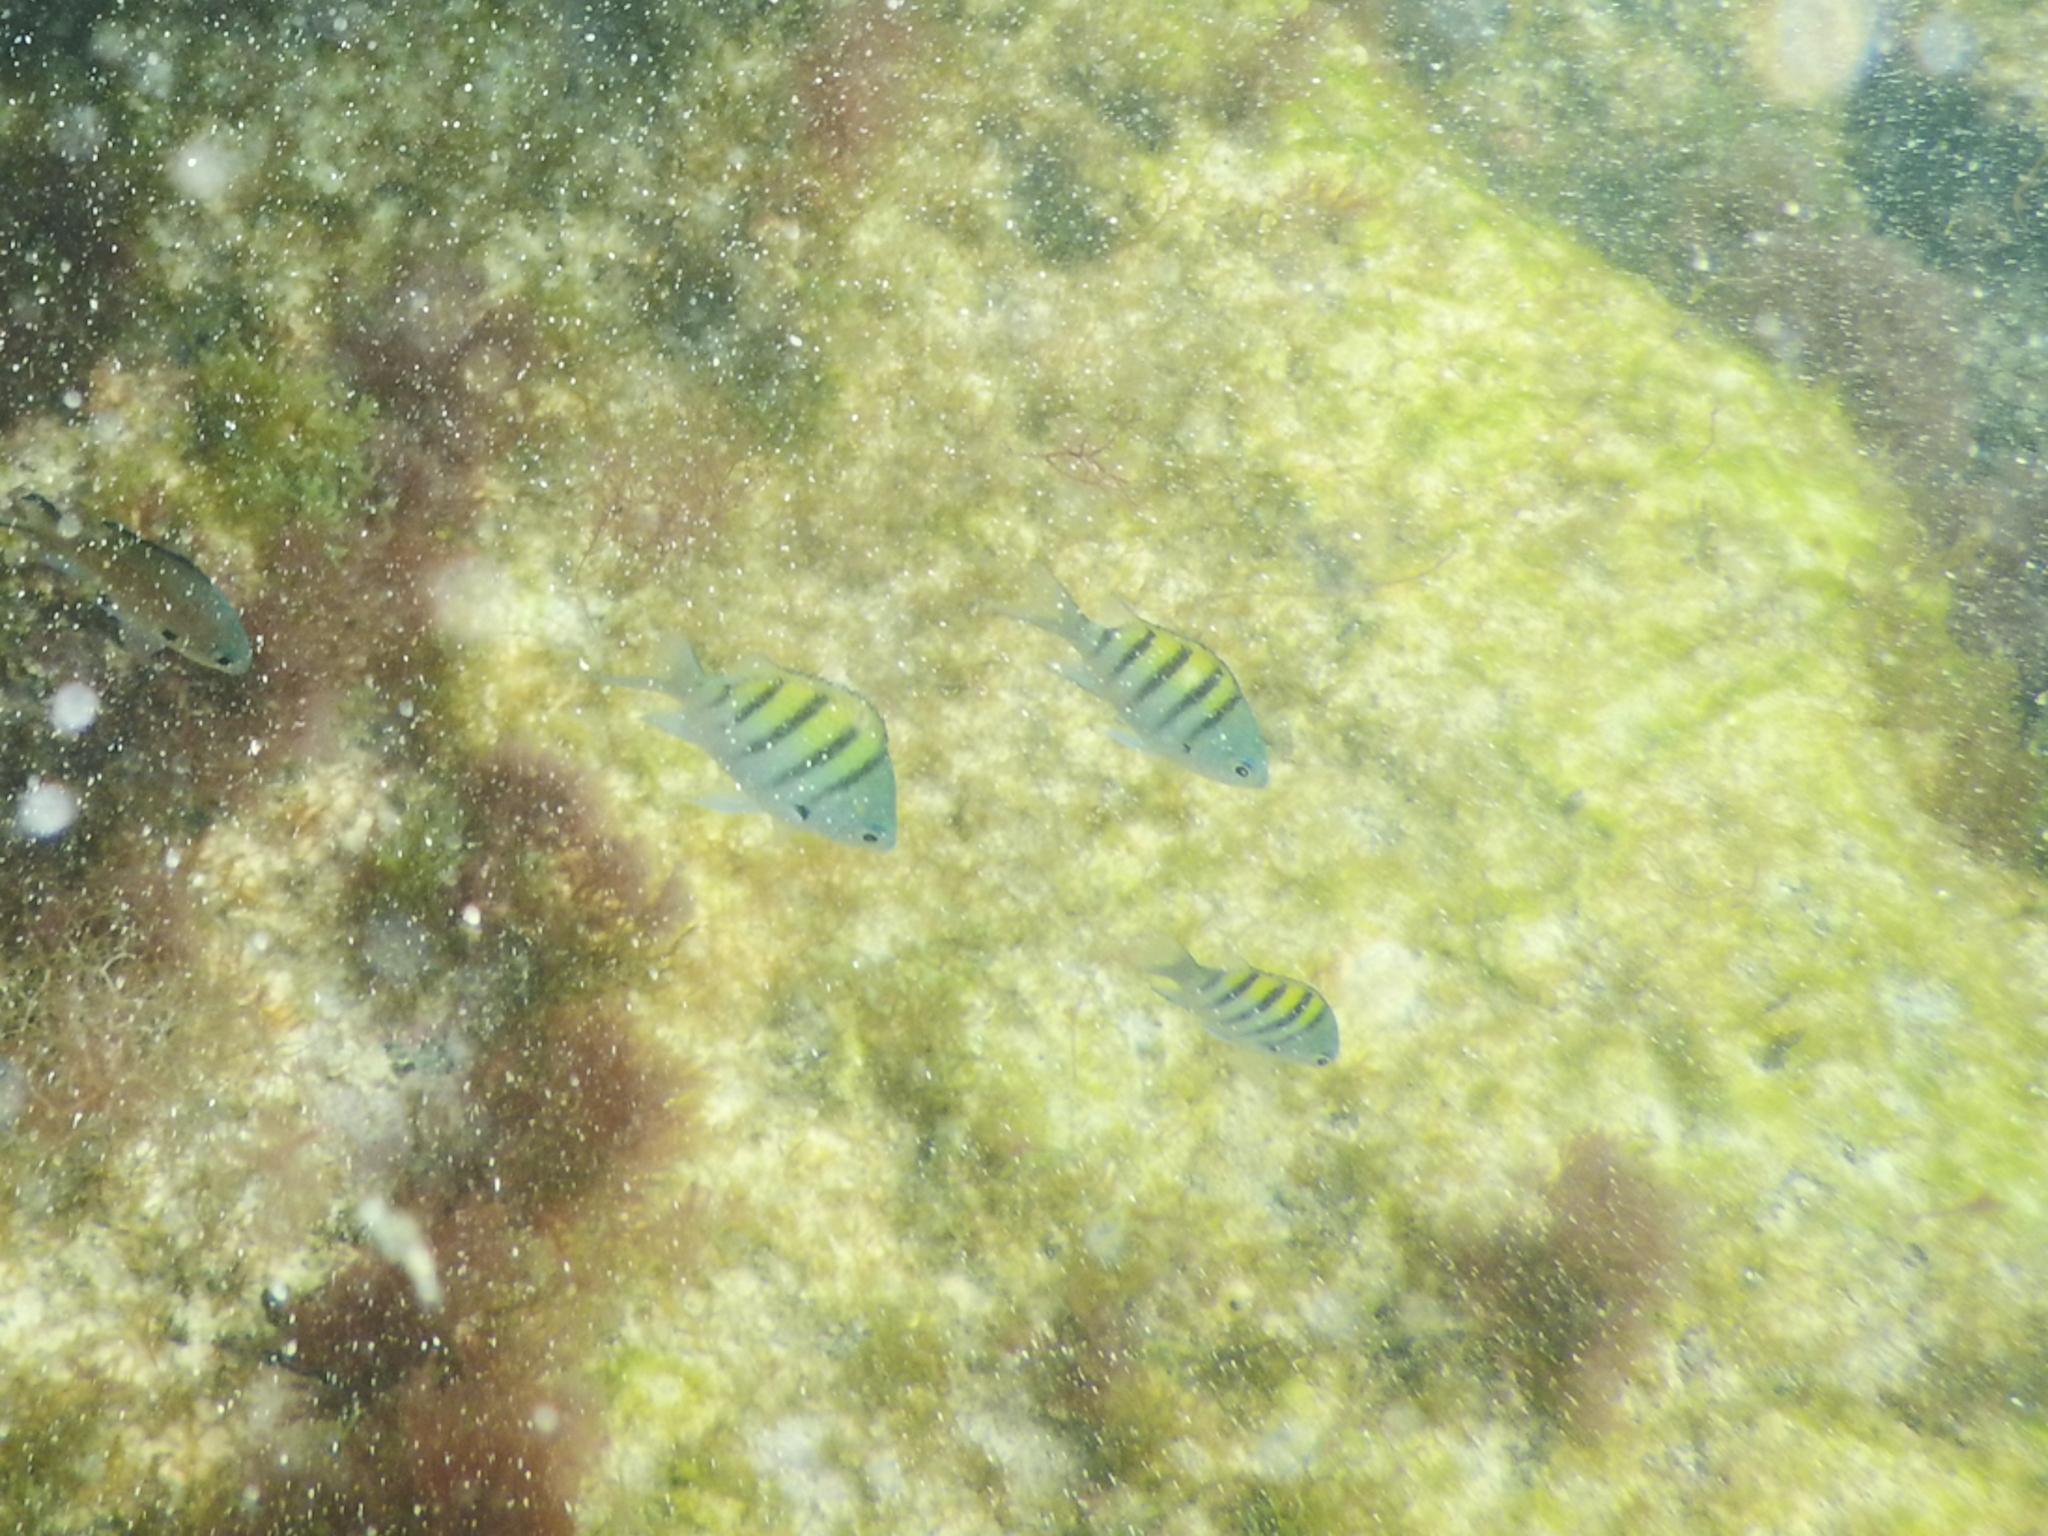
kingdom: Animalia
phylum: Chordata
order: Perciformes
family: Pomacentridae
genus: Abudefduf
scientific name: Abudefduf saxatilis
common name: Sergeant major
